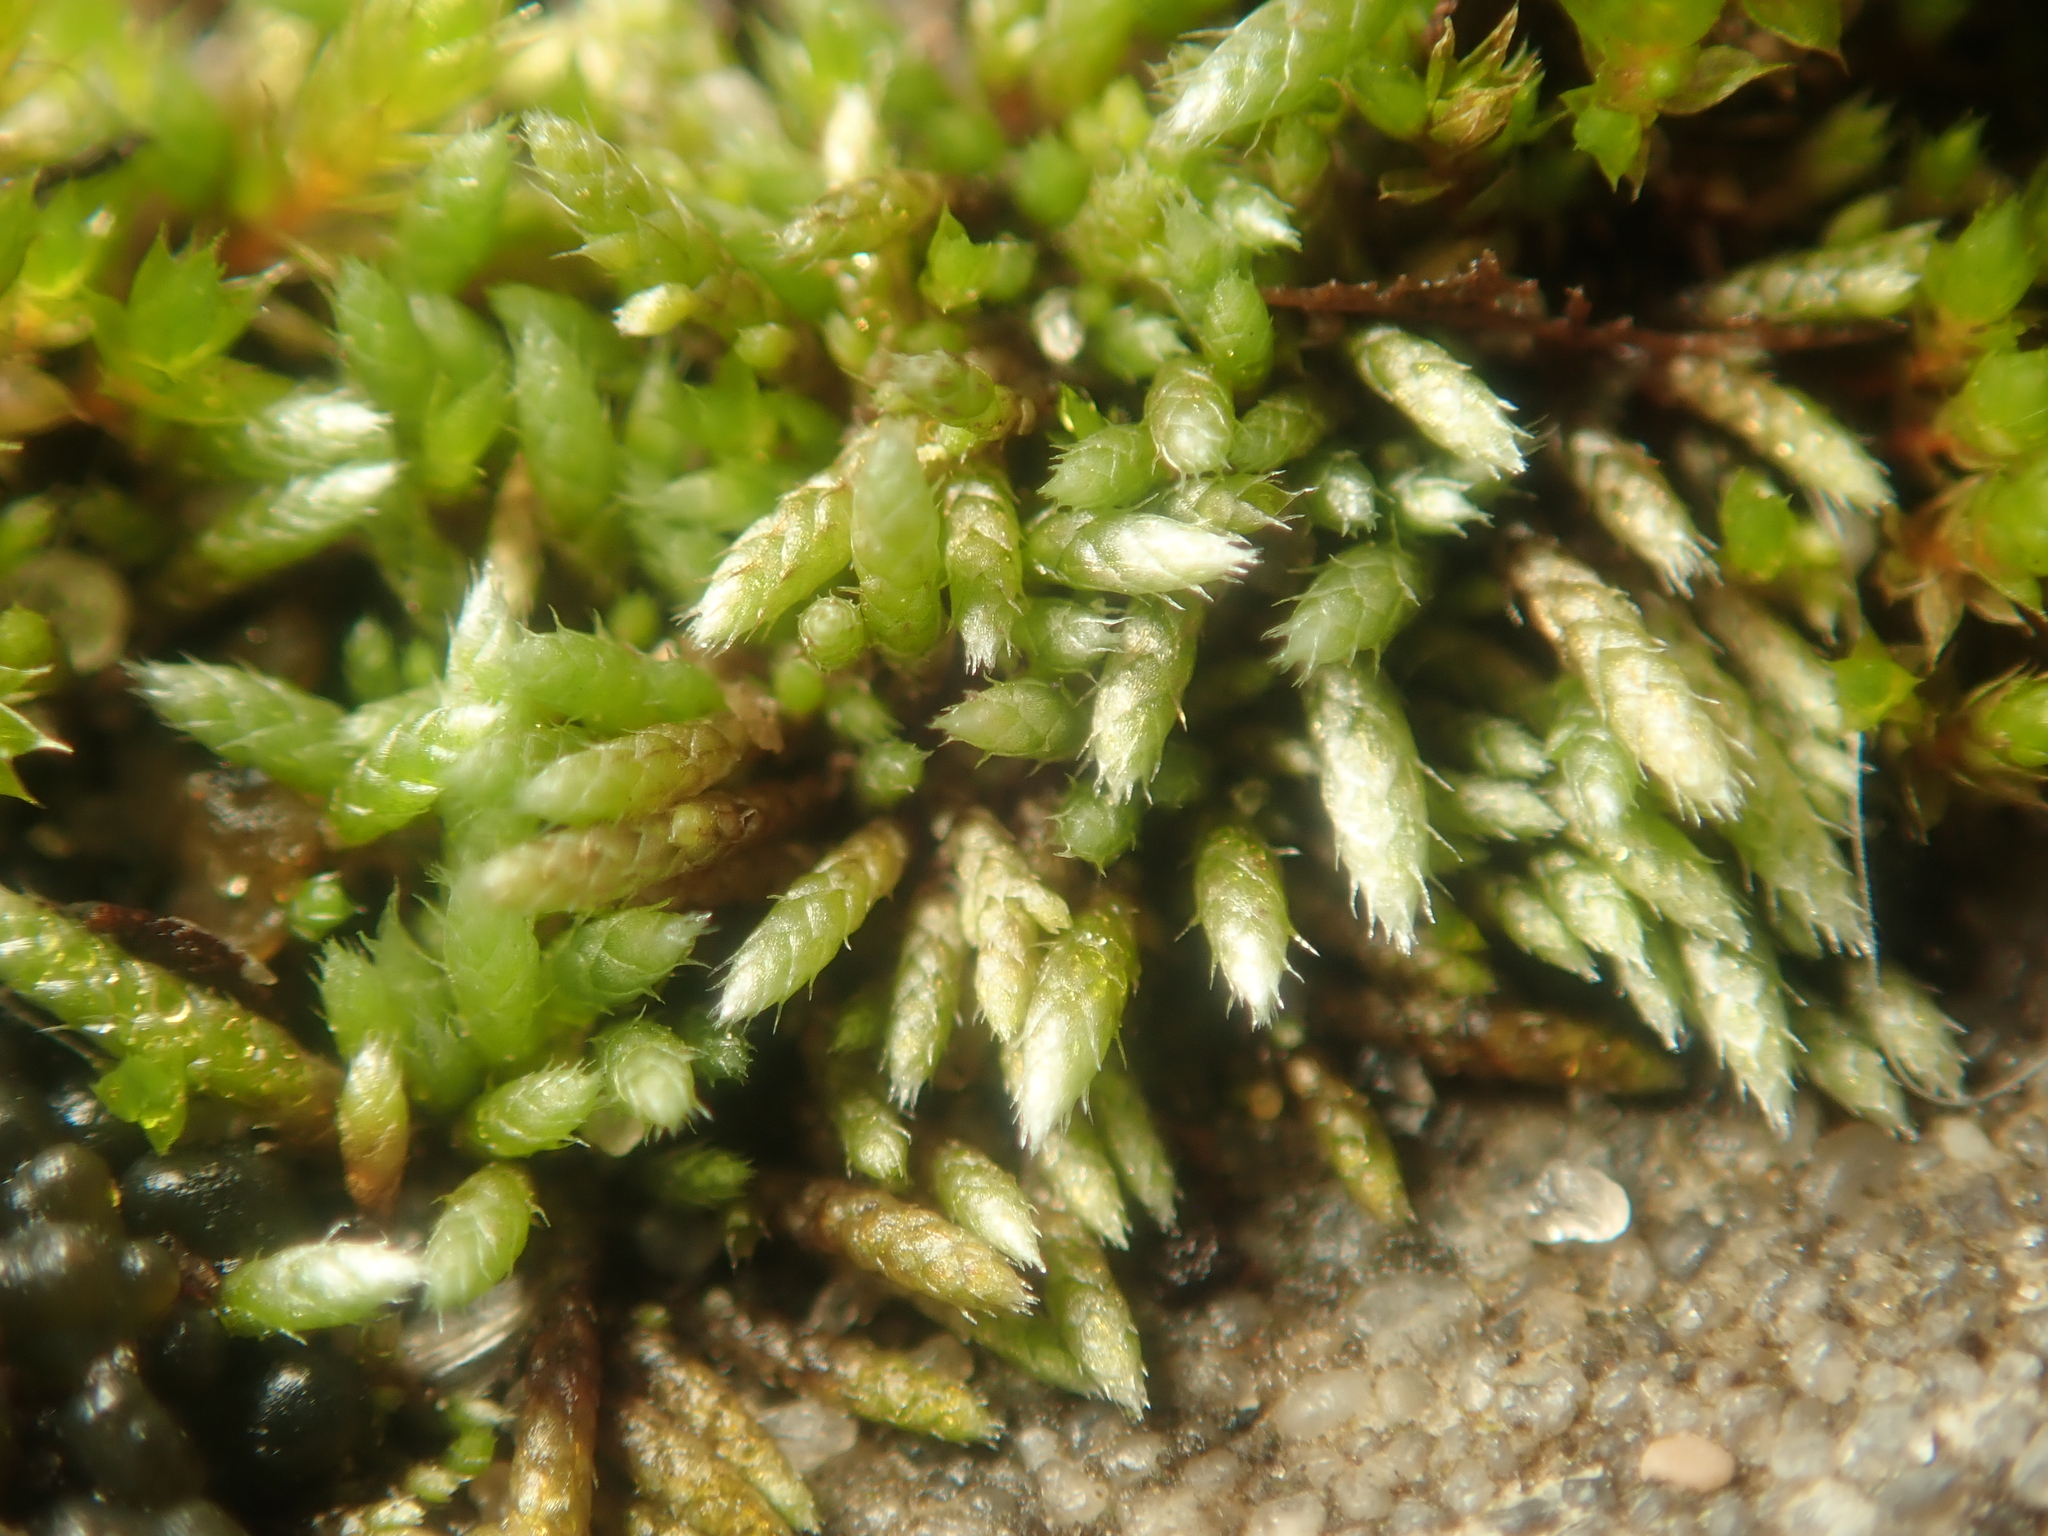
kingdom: Plantae
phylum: Bryophyta
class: Bryopsida
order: Bryales
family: Bryaceae
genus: Bryum
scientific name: Bryum argenteum
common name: Silver-moss
